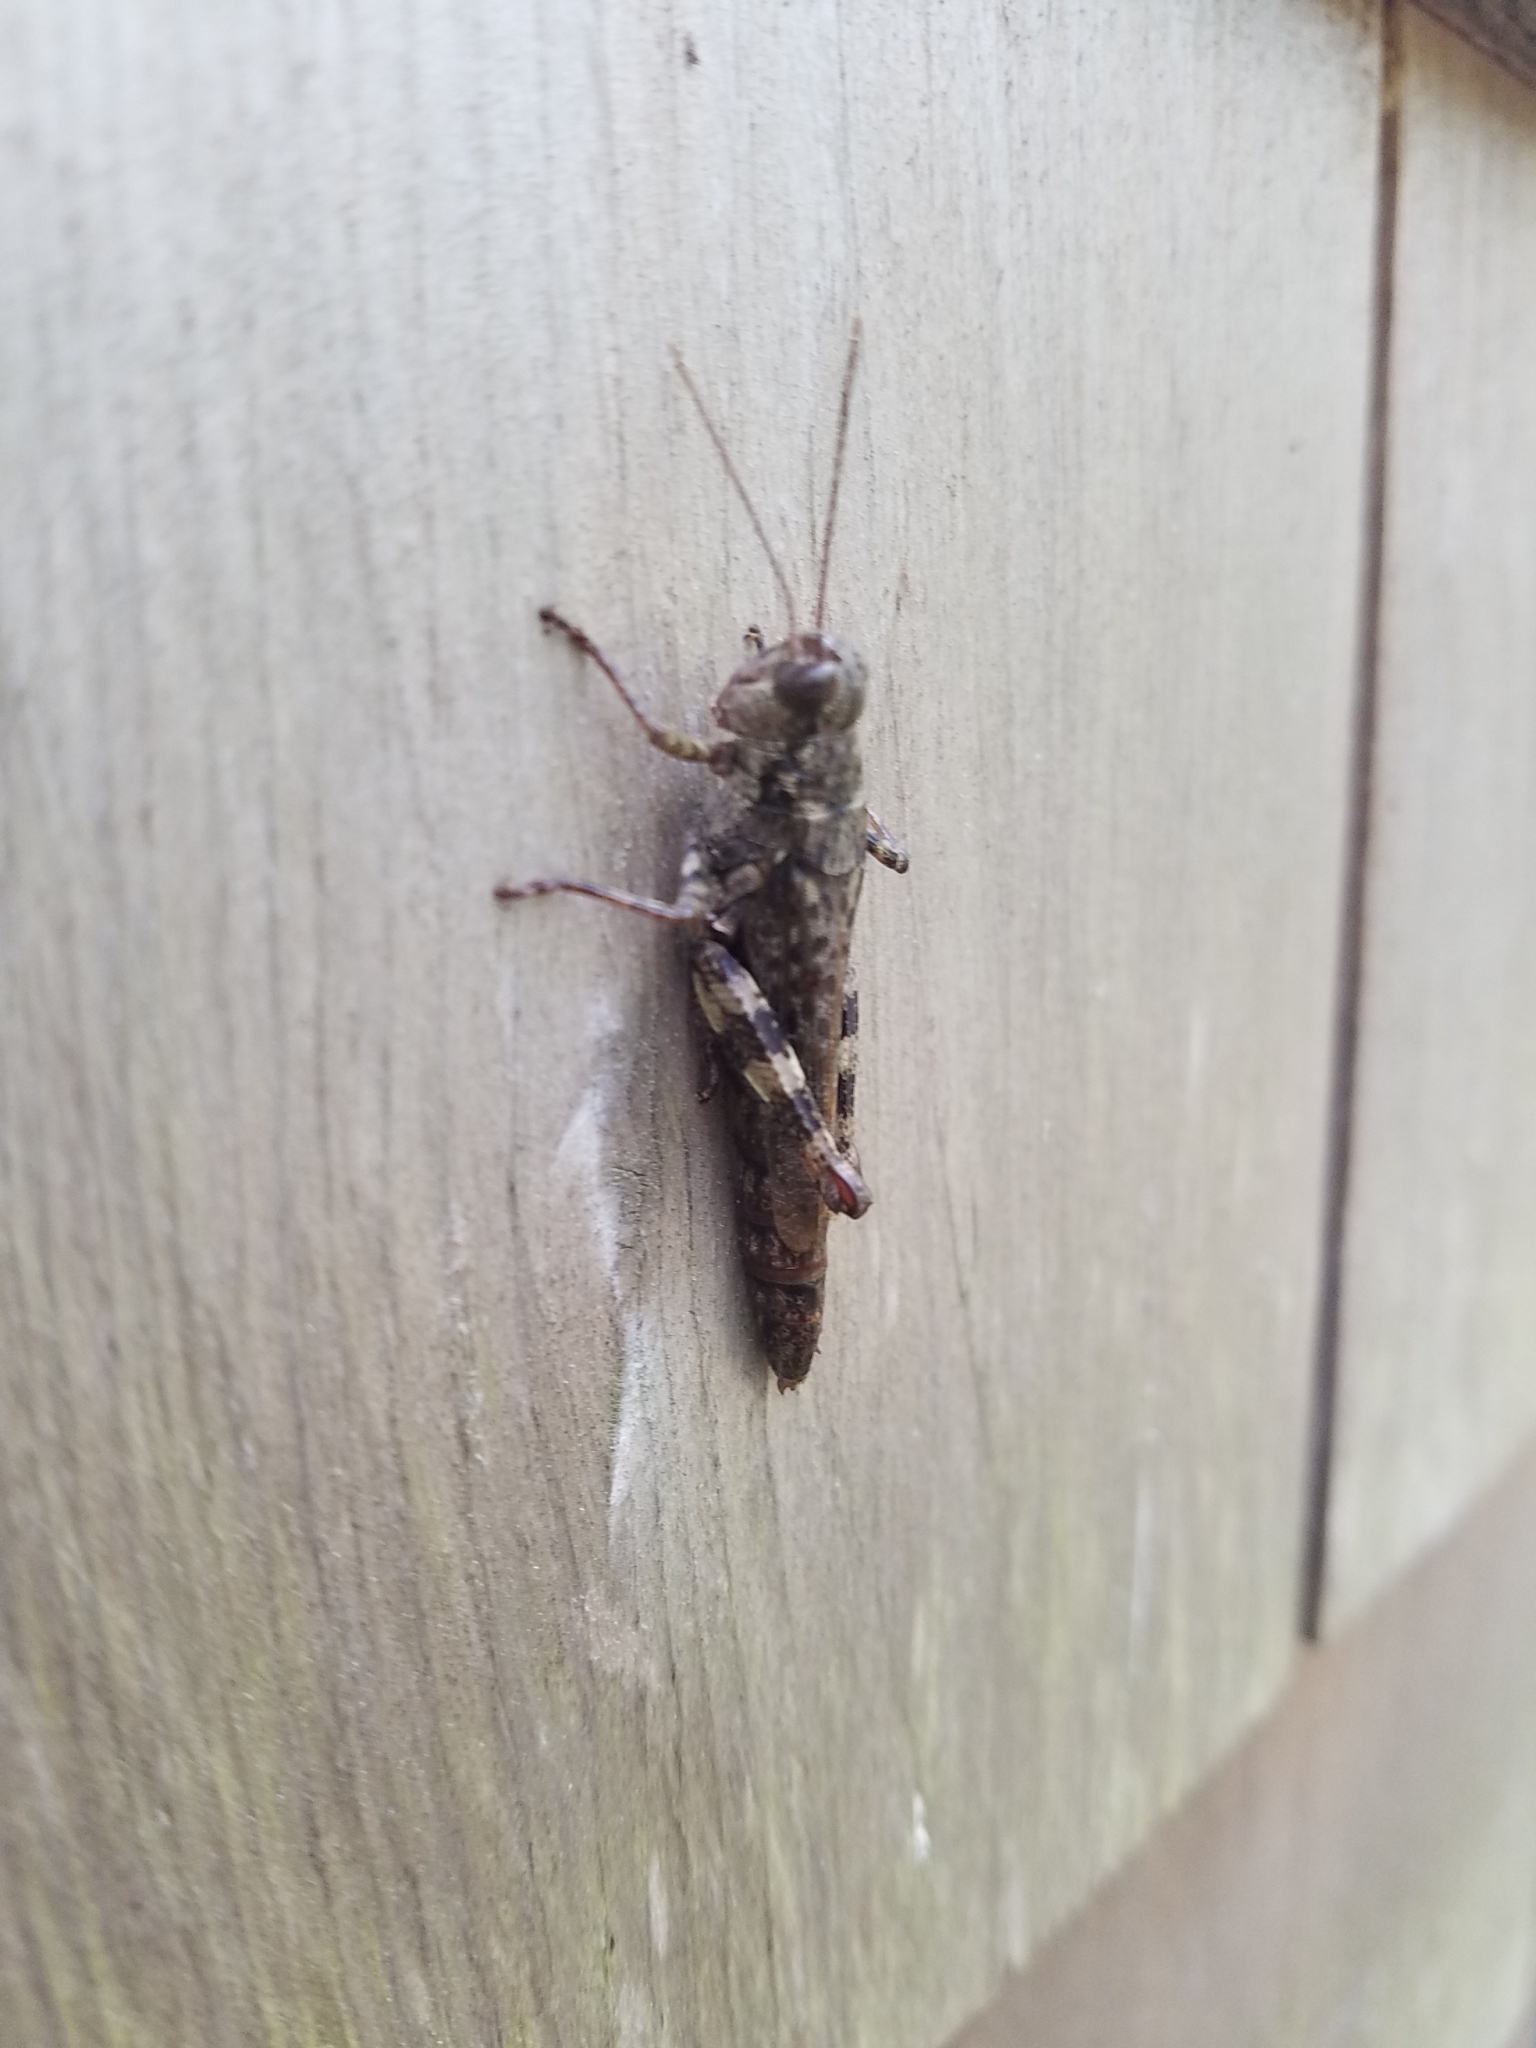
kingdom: Animalia
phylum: Arthropoda
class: Insecta
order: Orthoptera
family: Acrididae
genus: Melanoplus
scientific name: Melanoplus punctulatus
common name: Pine-tree spur-throat grasshopper
